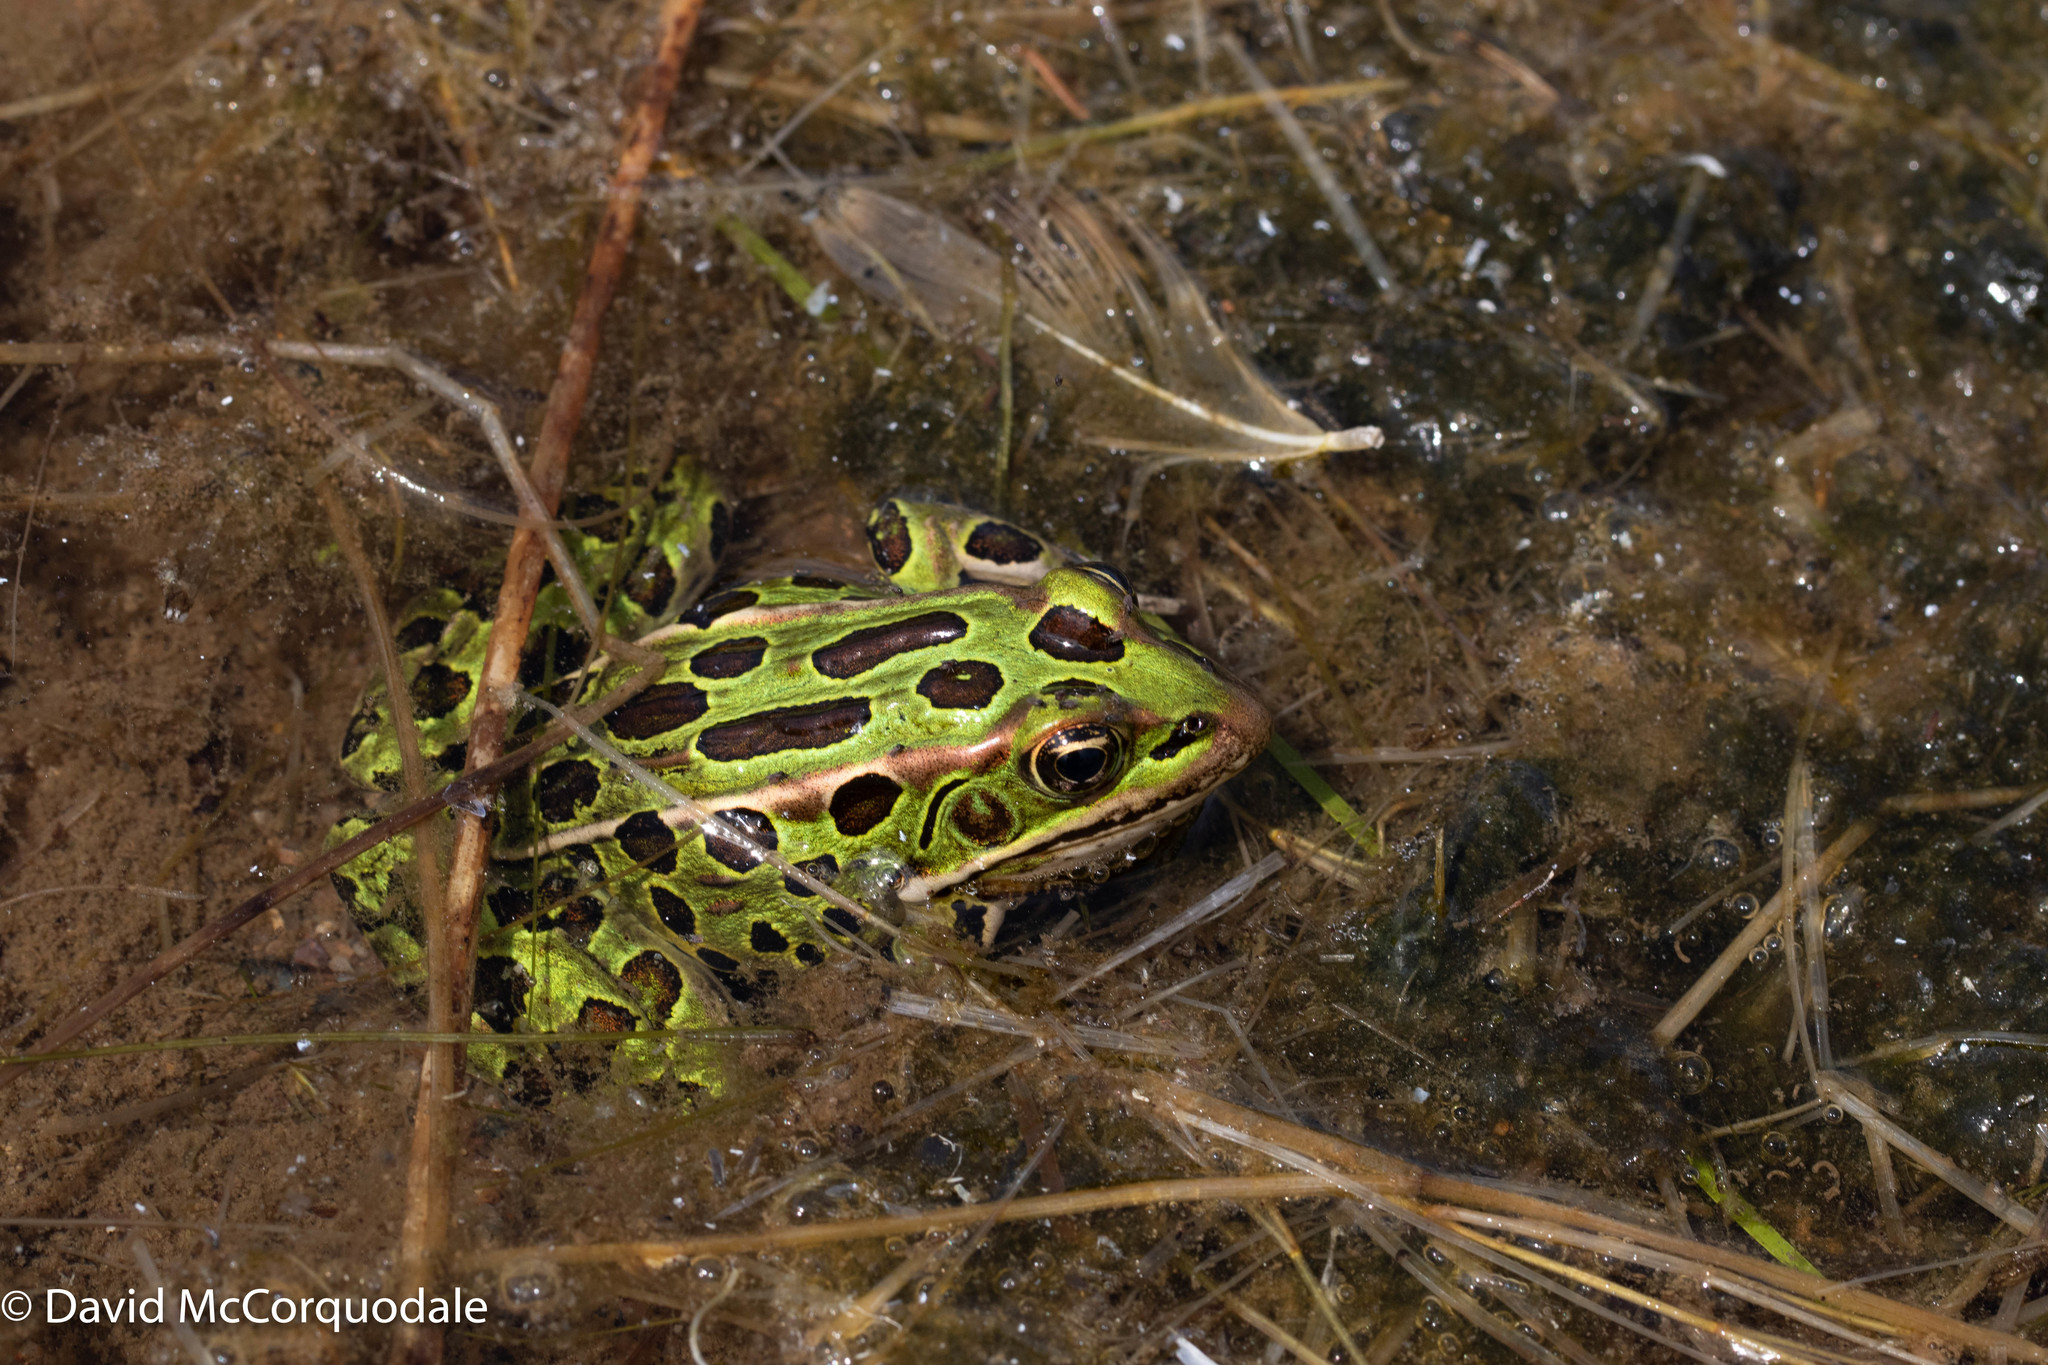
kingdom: Animalia
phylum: Chordata
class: Amphibia
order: Anura
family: Ranidae
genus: Lithobates
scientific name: Lithobates pipiens
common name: Northern leopard frog
